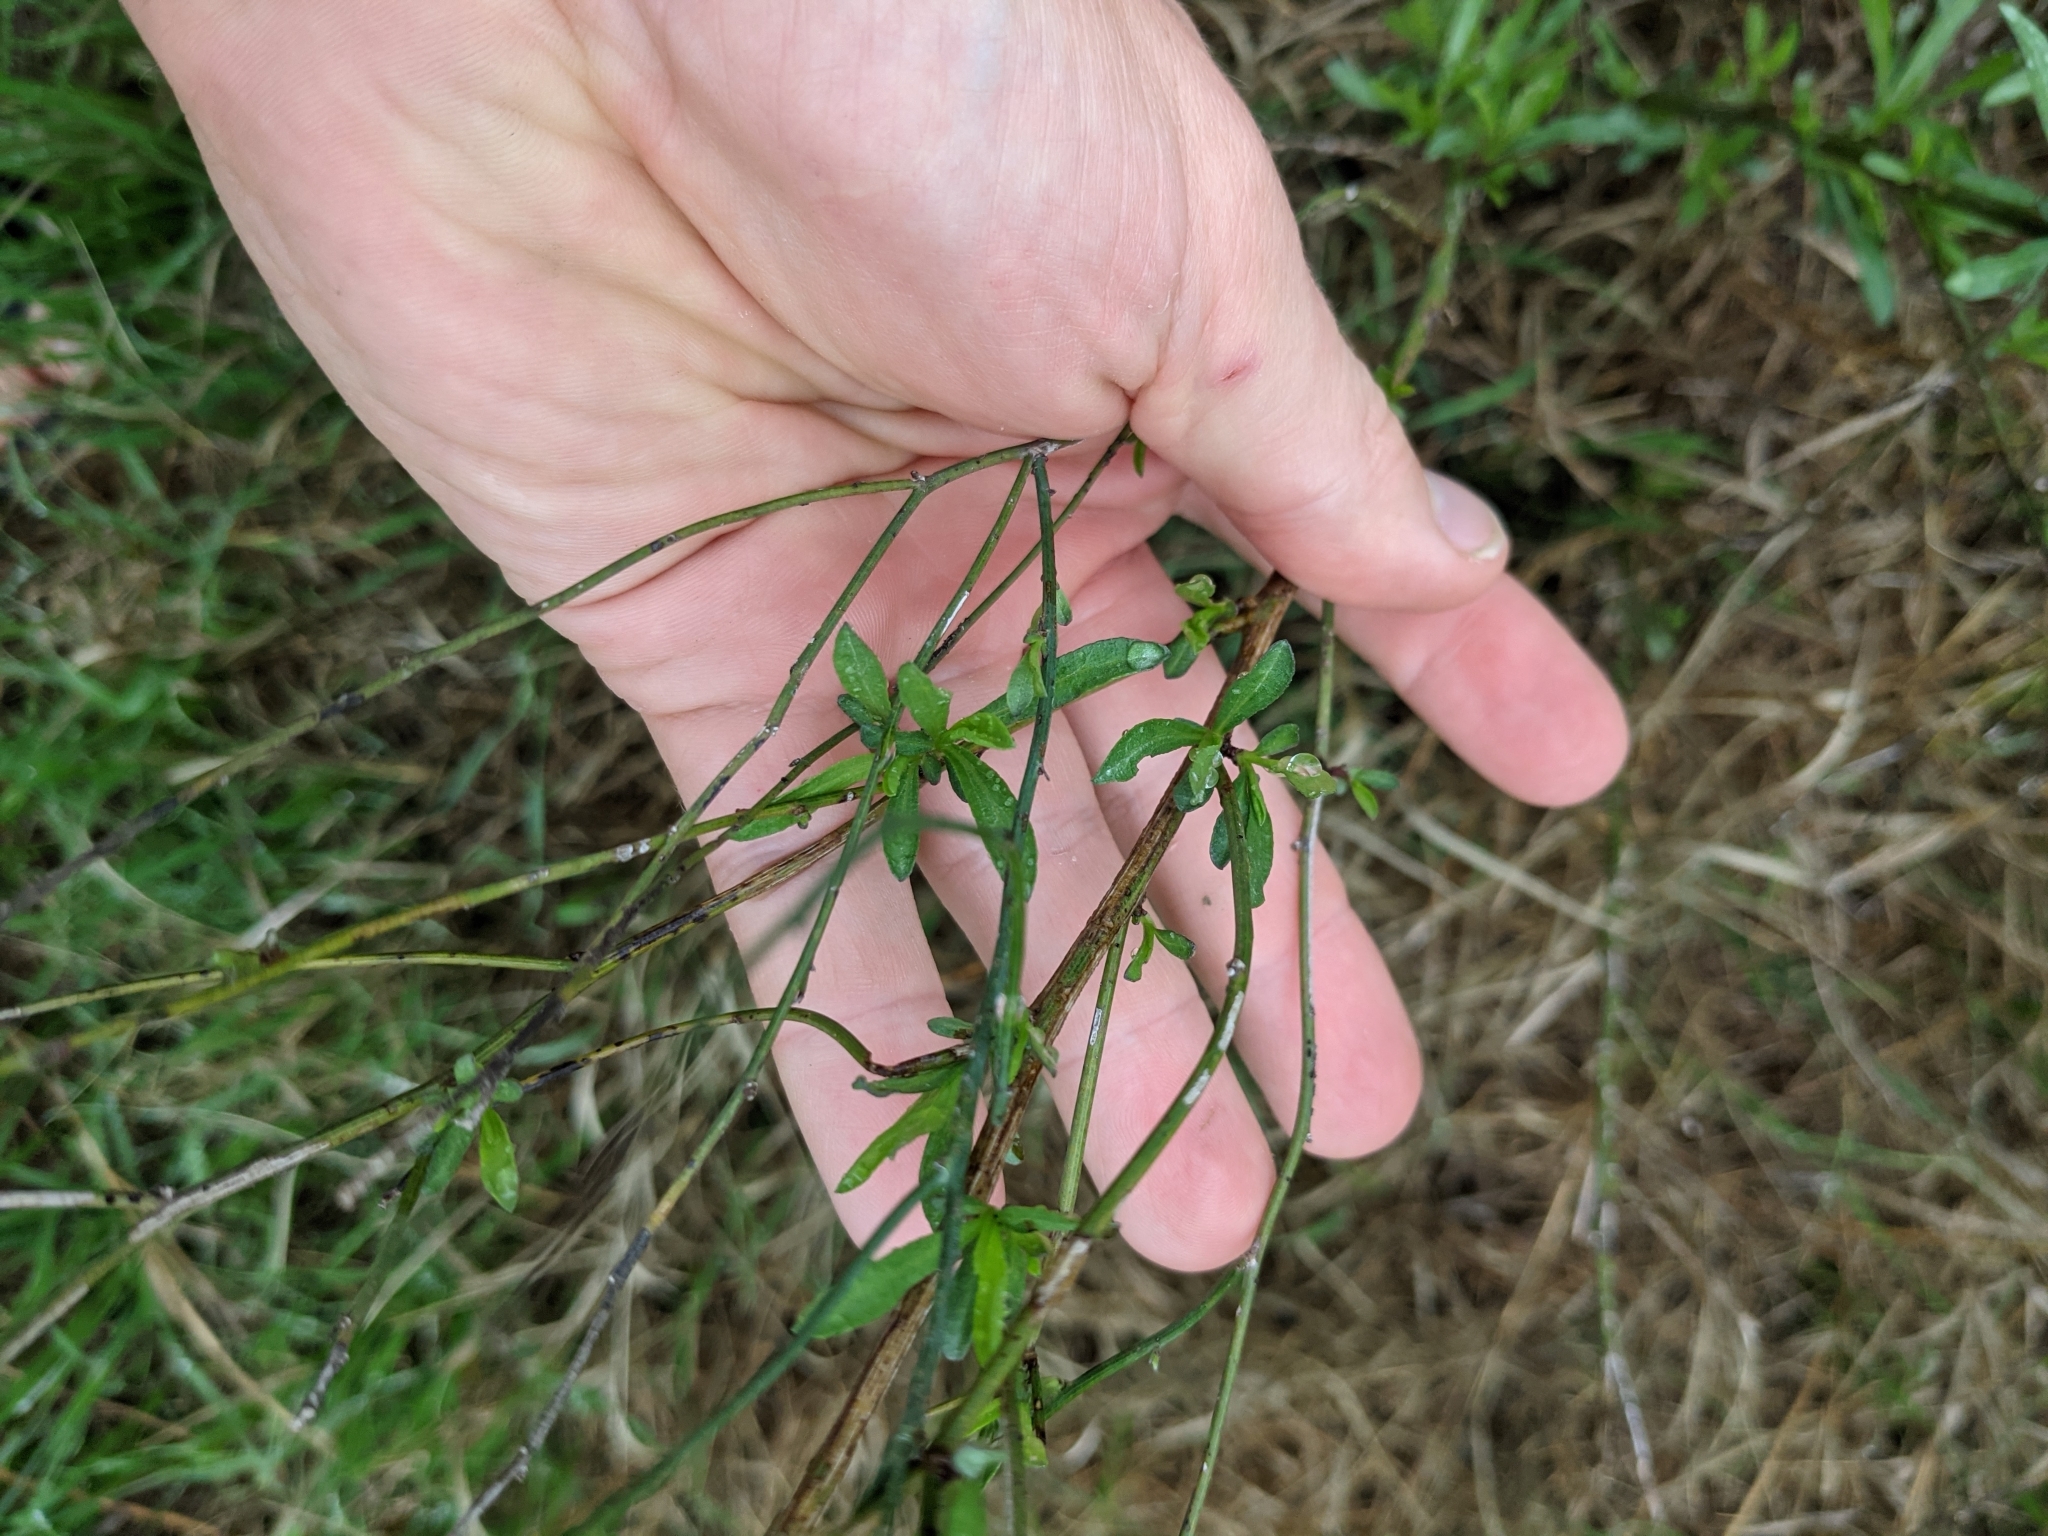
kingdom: Plantae
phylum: Tracheophyta
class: Magnoliopsida
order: Asterales
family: Asteraceae
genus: Chloracantha
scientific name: Chloracantha spinosa
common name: Mexican devilweed
